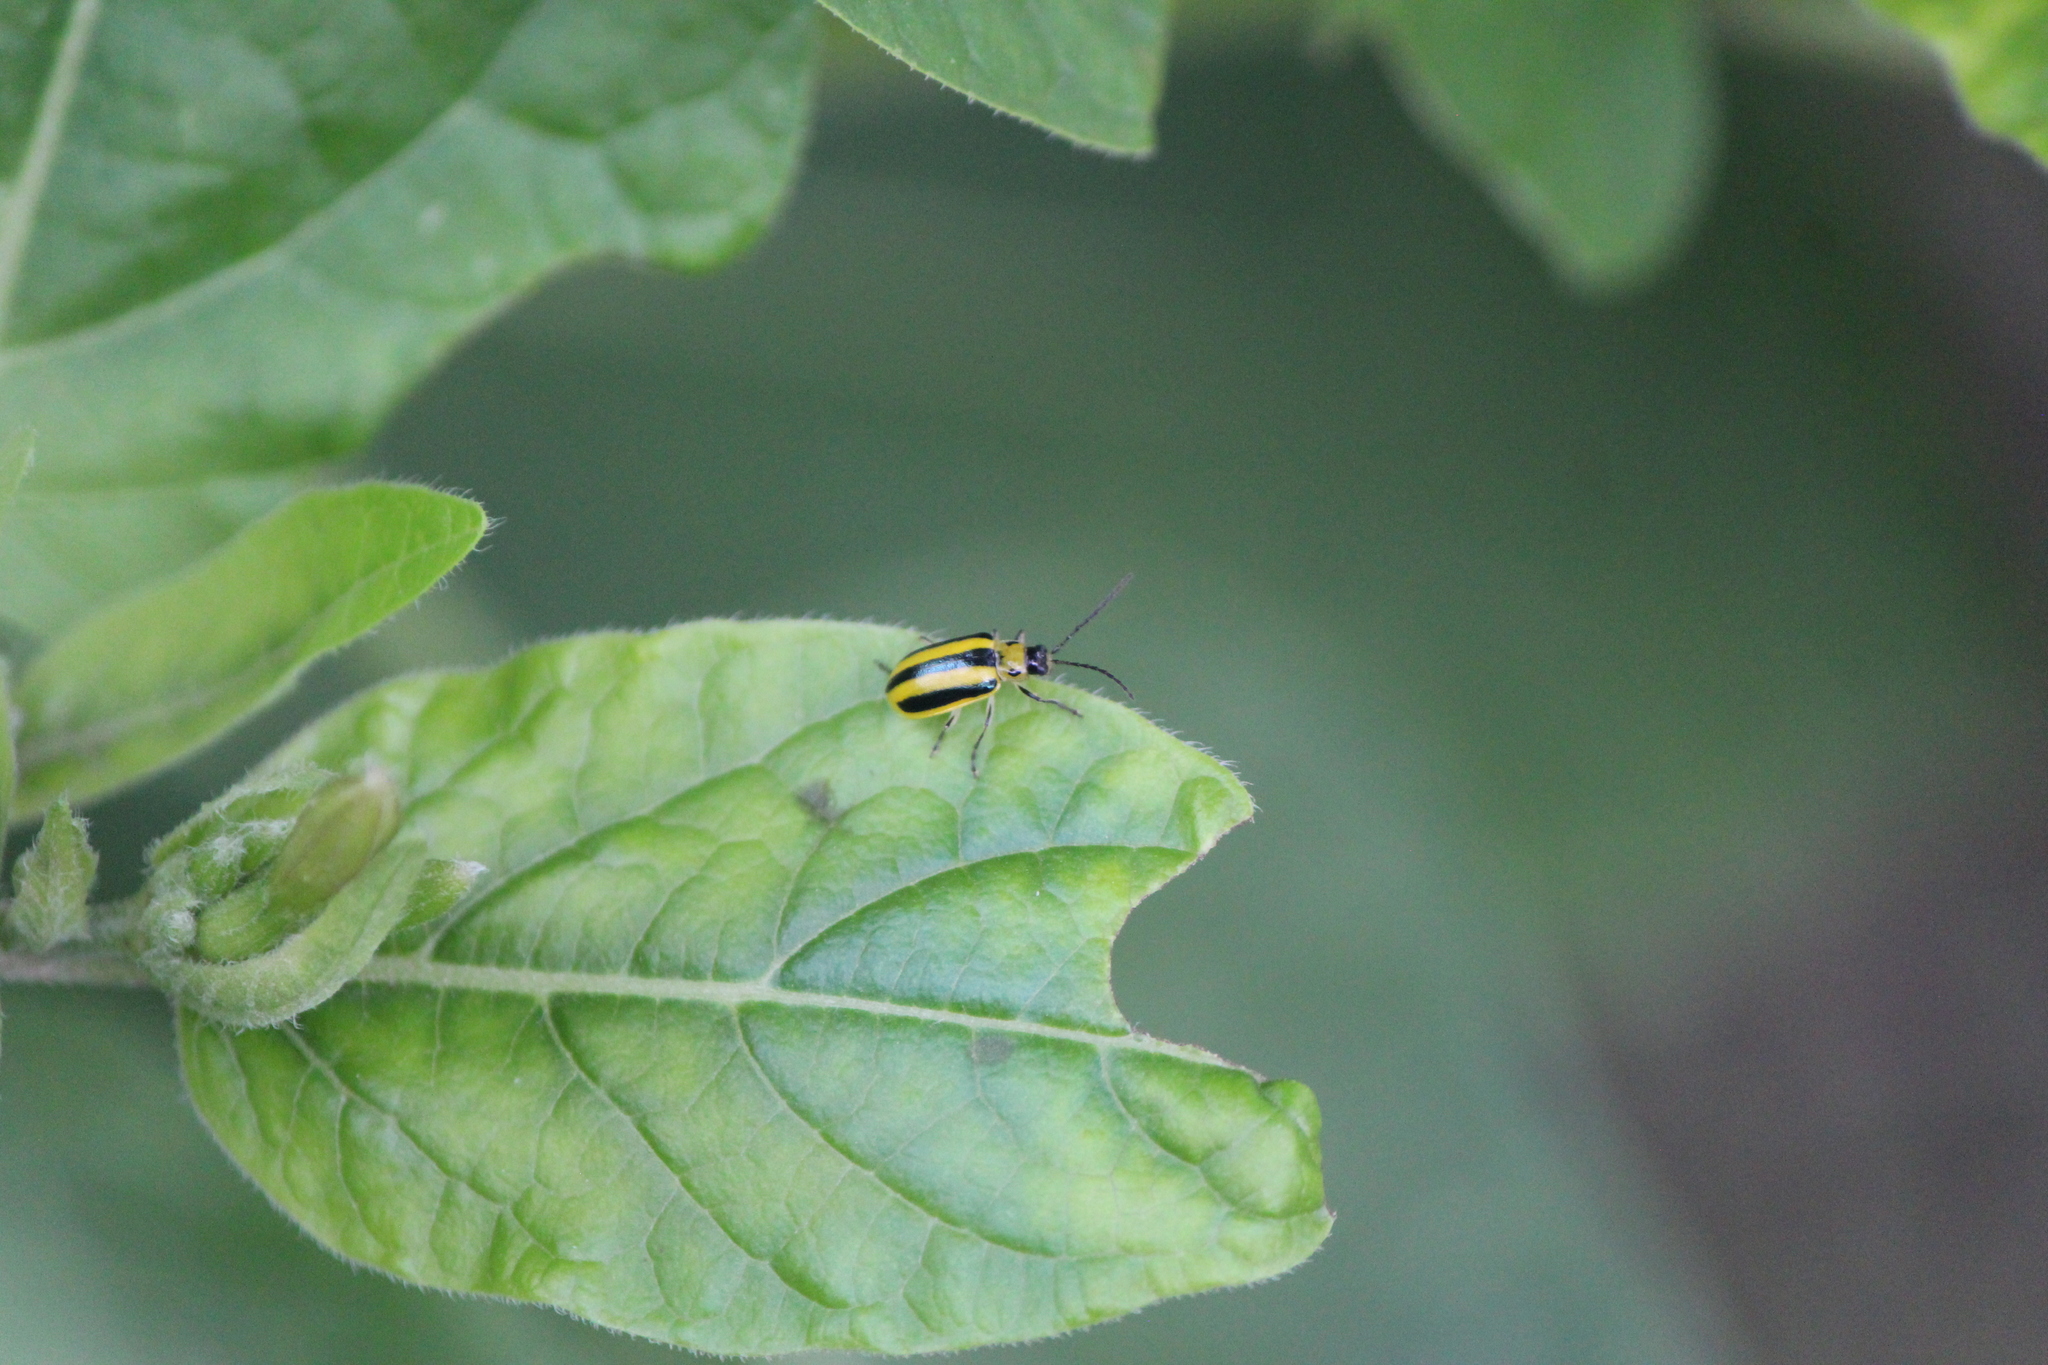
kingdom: Animalia
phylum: Arthropoda
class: Insecta
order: Coleoptera
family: Chrysomelidae
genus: Amphelasma
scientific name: Amphelasma cavum
